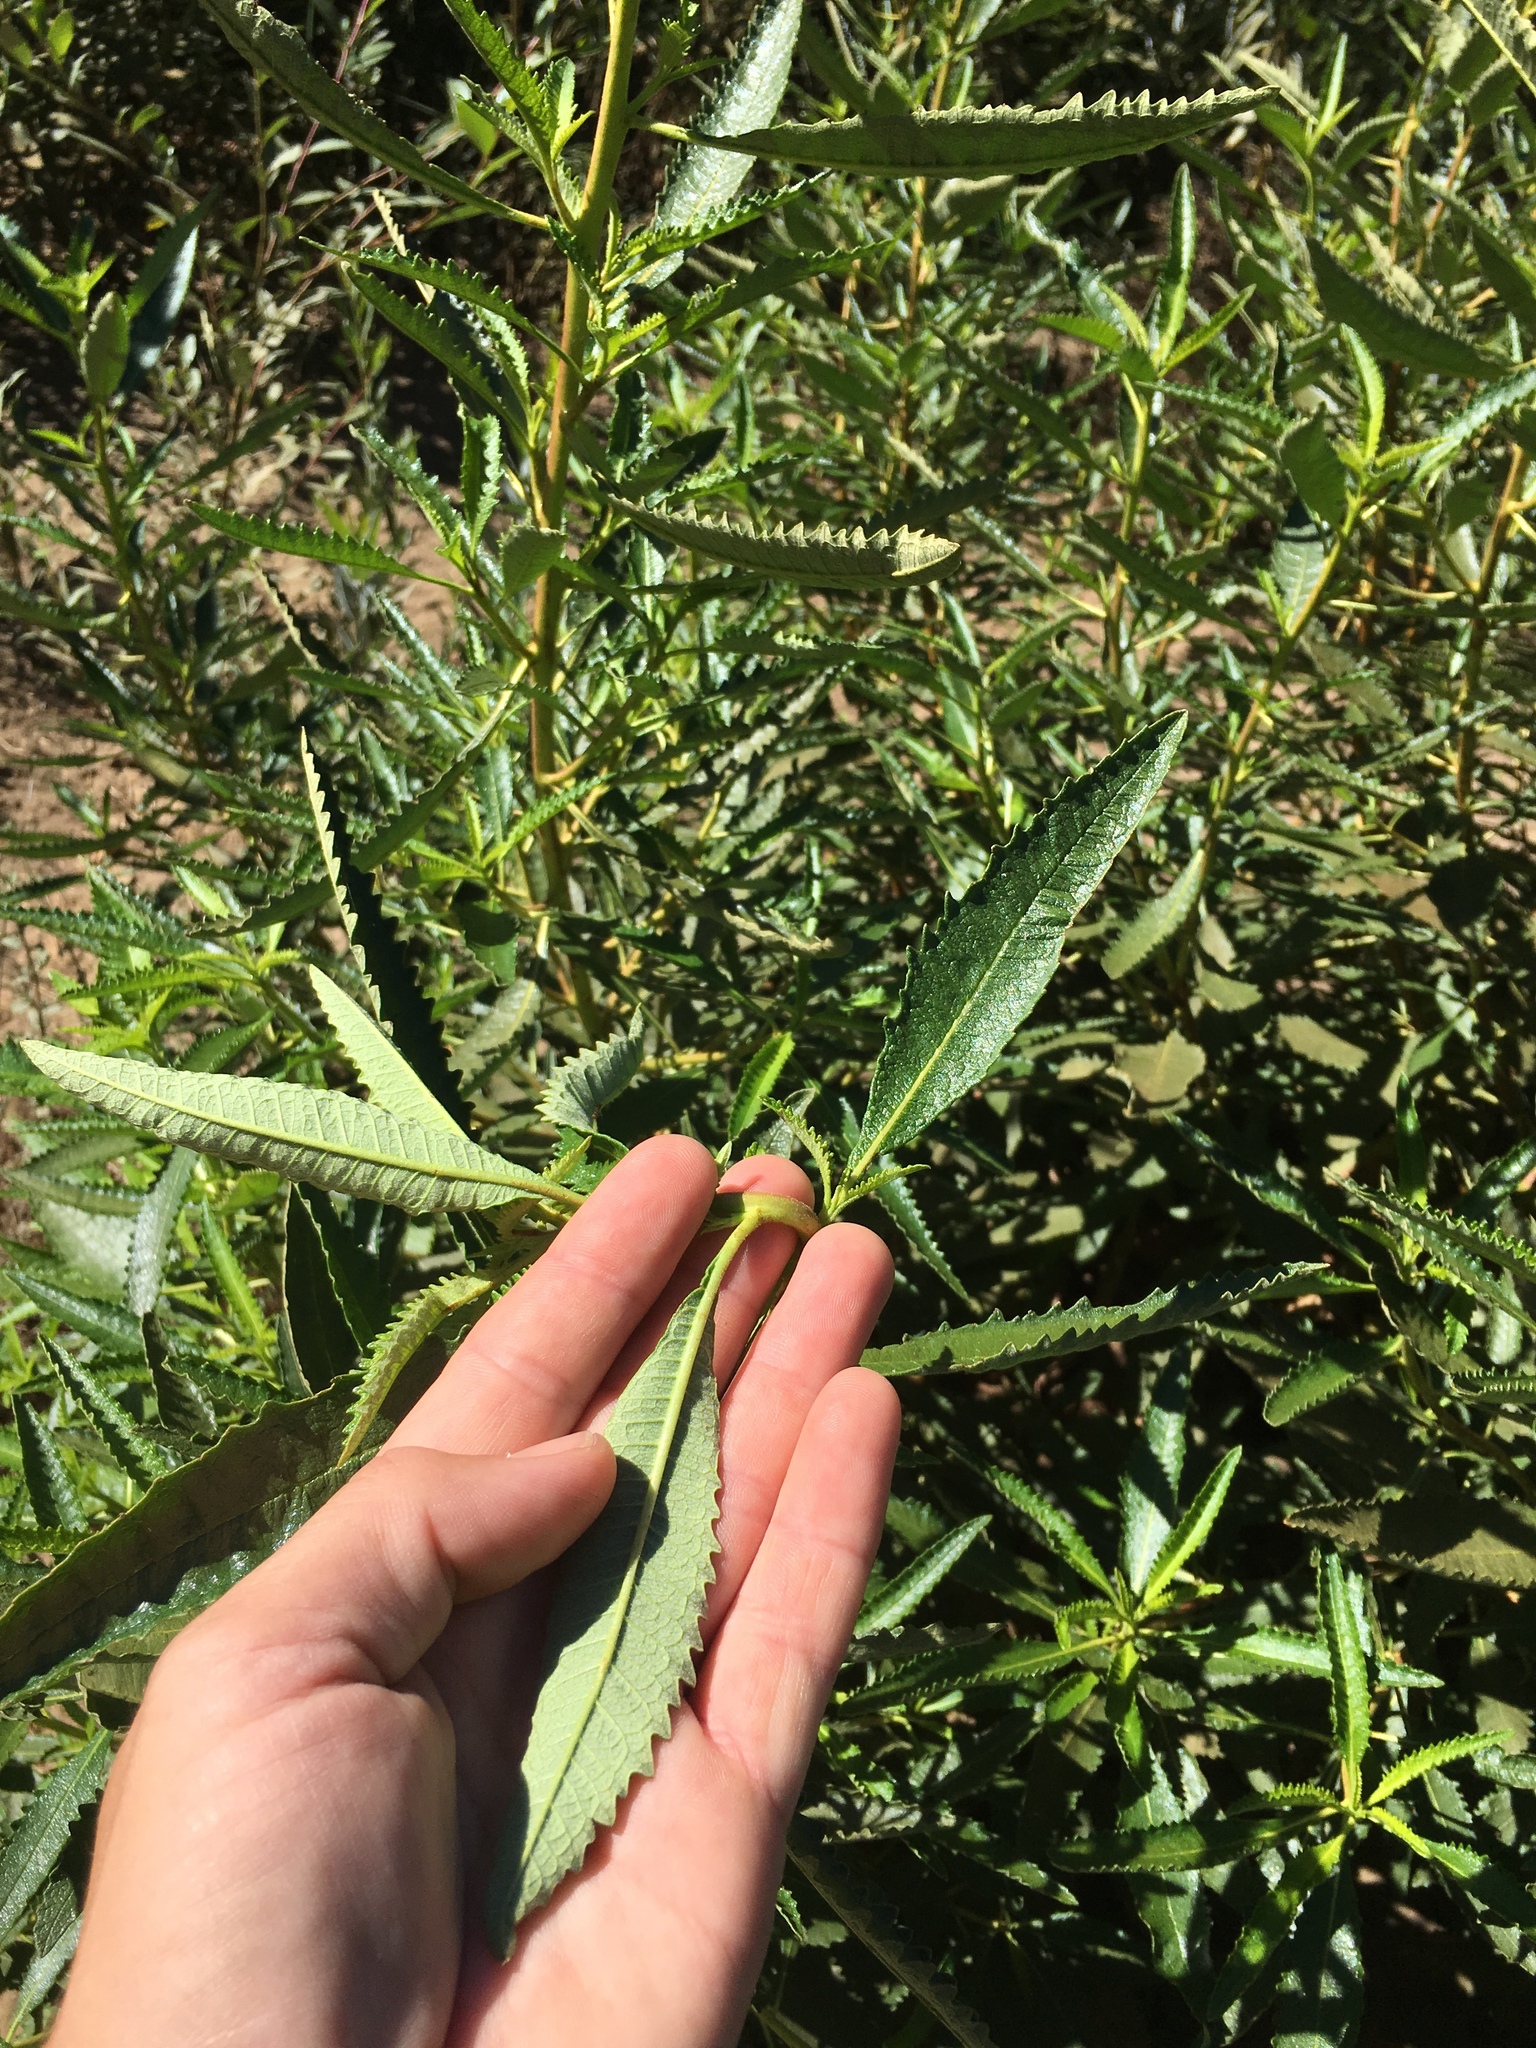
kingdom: Plantae
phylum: Tracheophyta
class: Magnoliopsida
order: Boraginales
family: Namaceae
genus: Eriodictyon
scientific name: Eriodictyon crassifolium
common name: Thick-leaf yerba-santa
